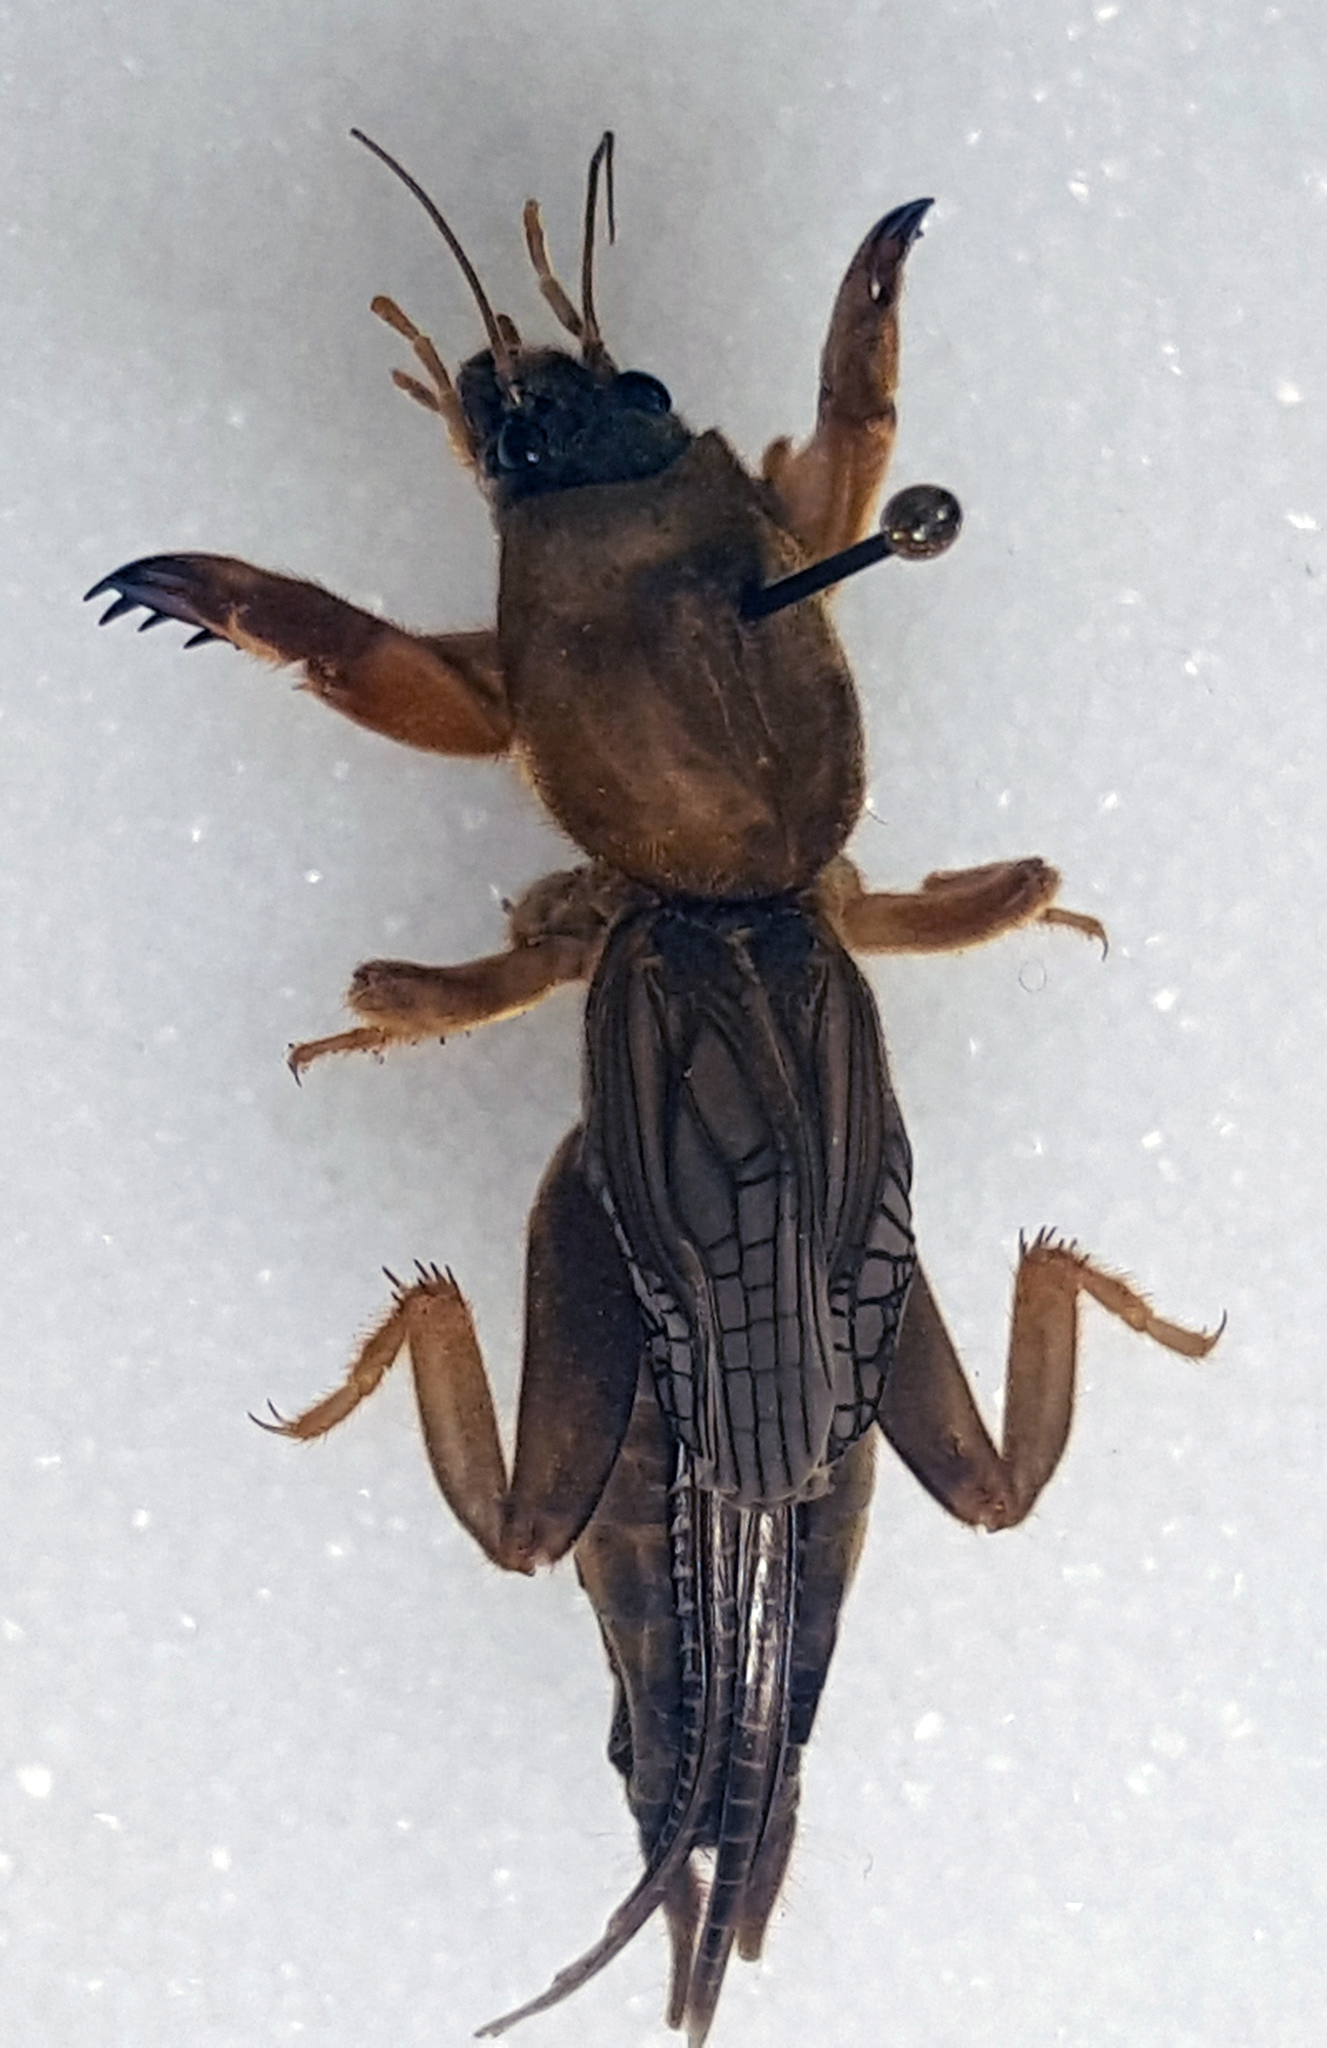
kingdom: Animalia
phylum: Arthropoda
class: Insecta
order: Orthoptera
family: Gryllotalpidae
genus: Neocurtilla
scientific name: Neocurtilla hexadactyla
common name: Northern mole cricket
